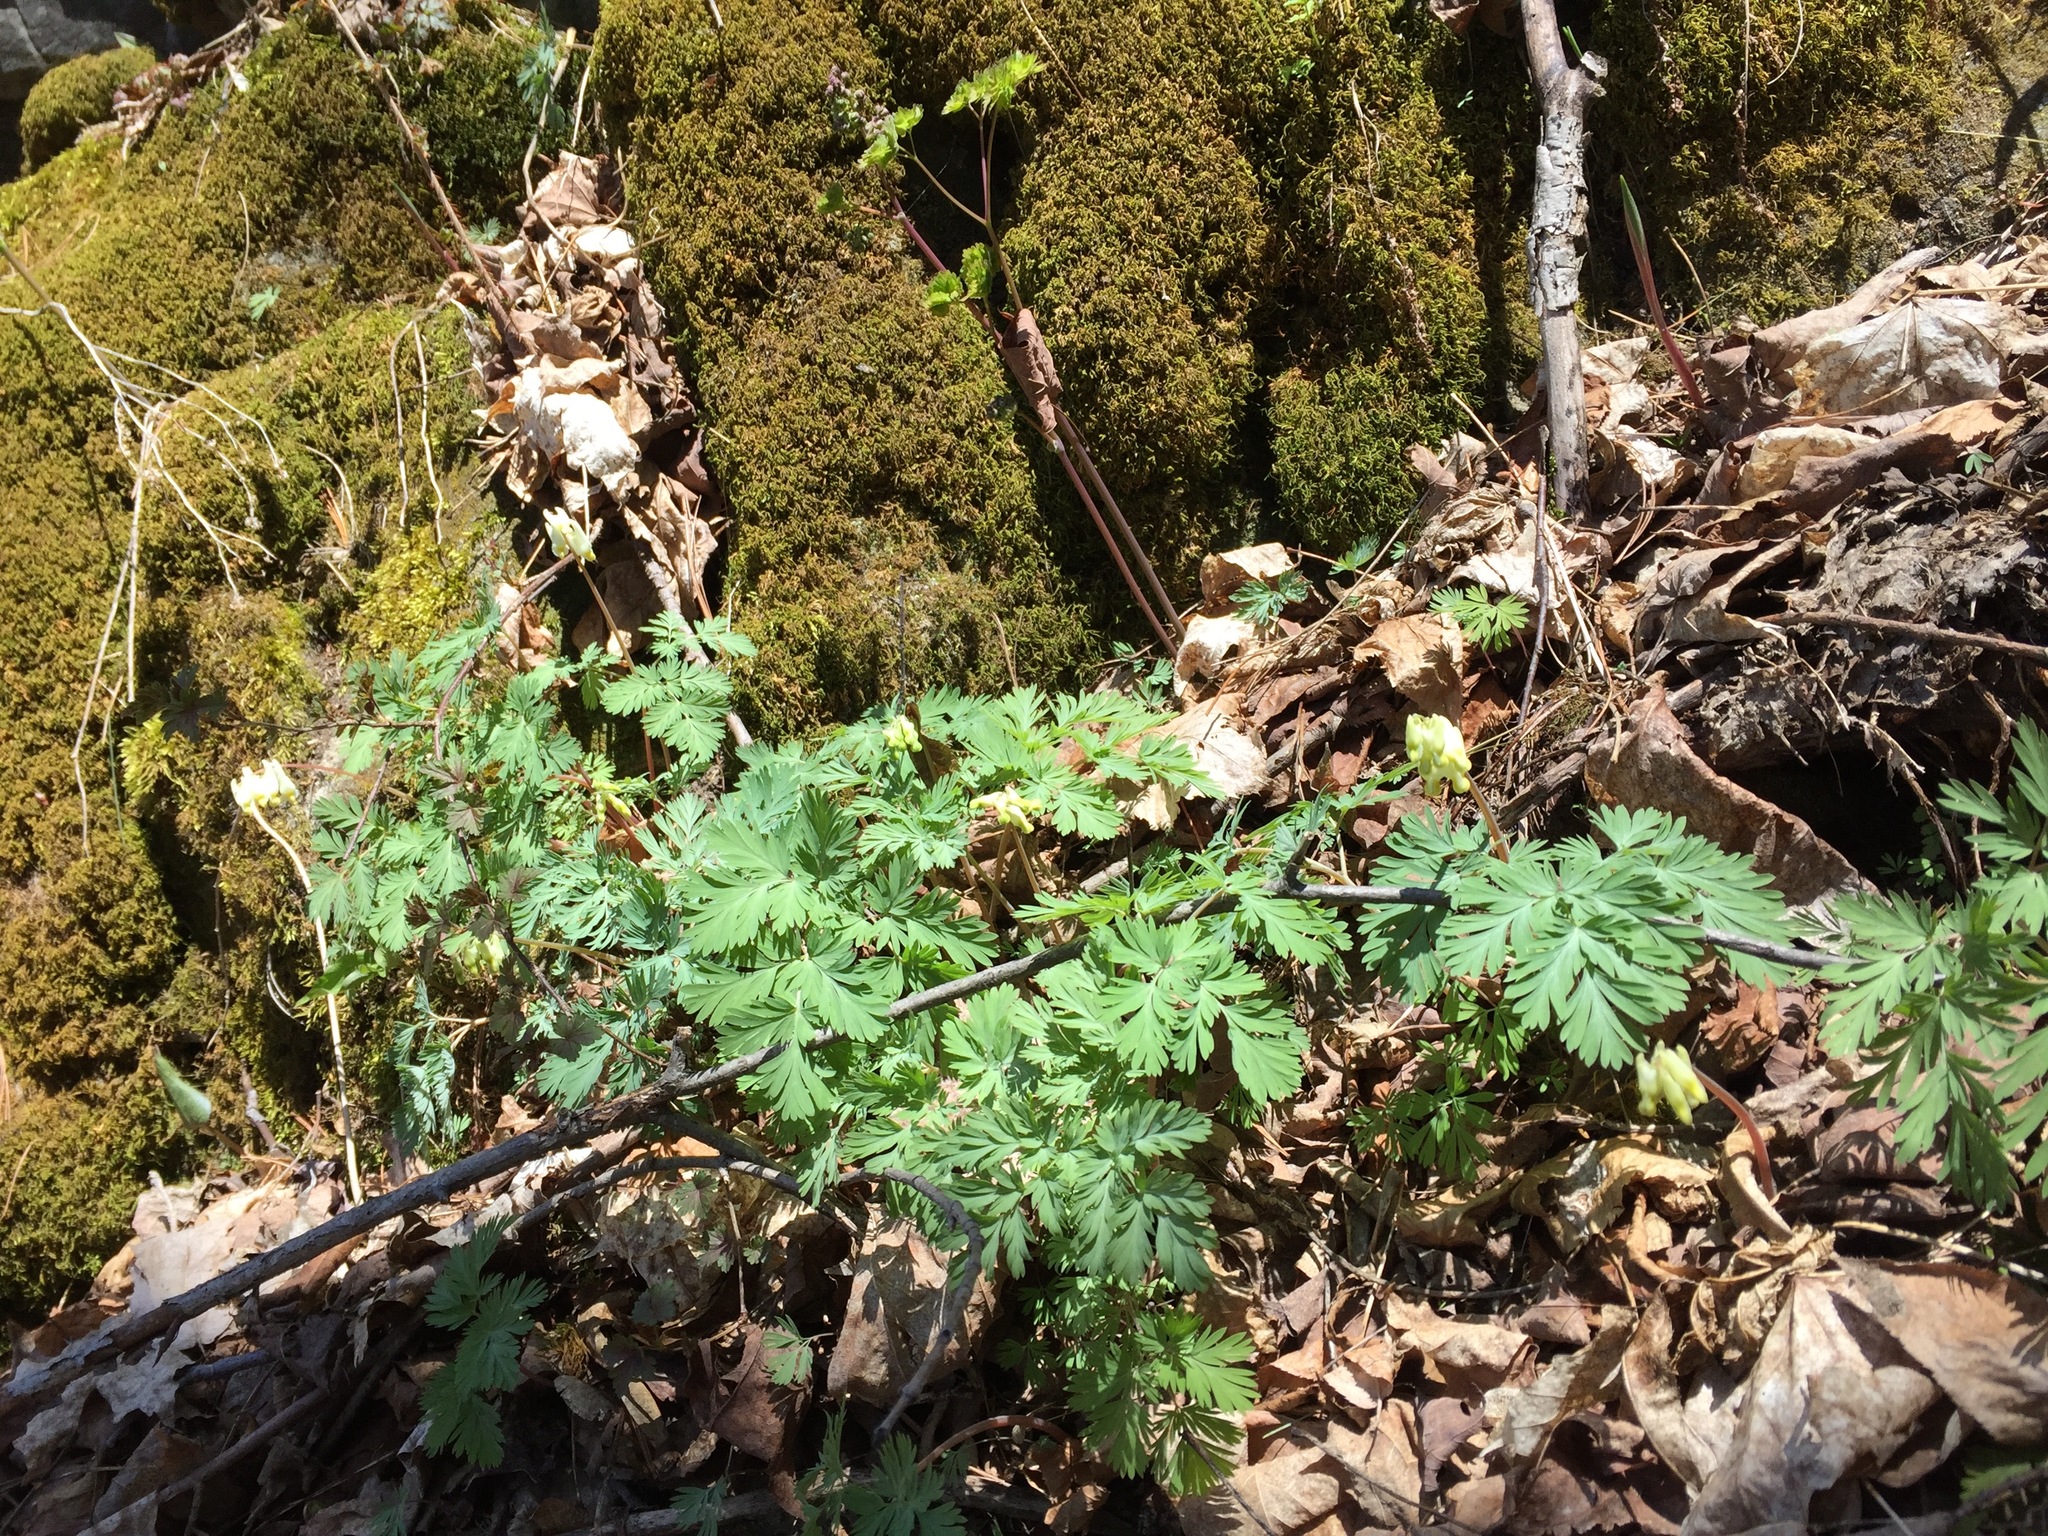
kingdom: Plantae
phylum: Tracheophyta
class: Magnoliopsida
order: Ranunculales
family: Papaveraceae
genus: Dicentra
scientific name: Dicentra cucullaria
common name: Dutchman's breeches
